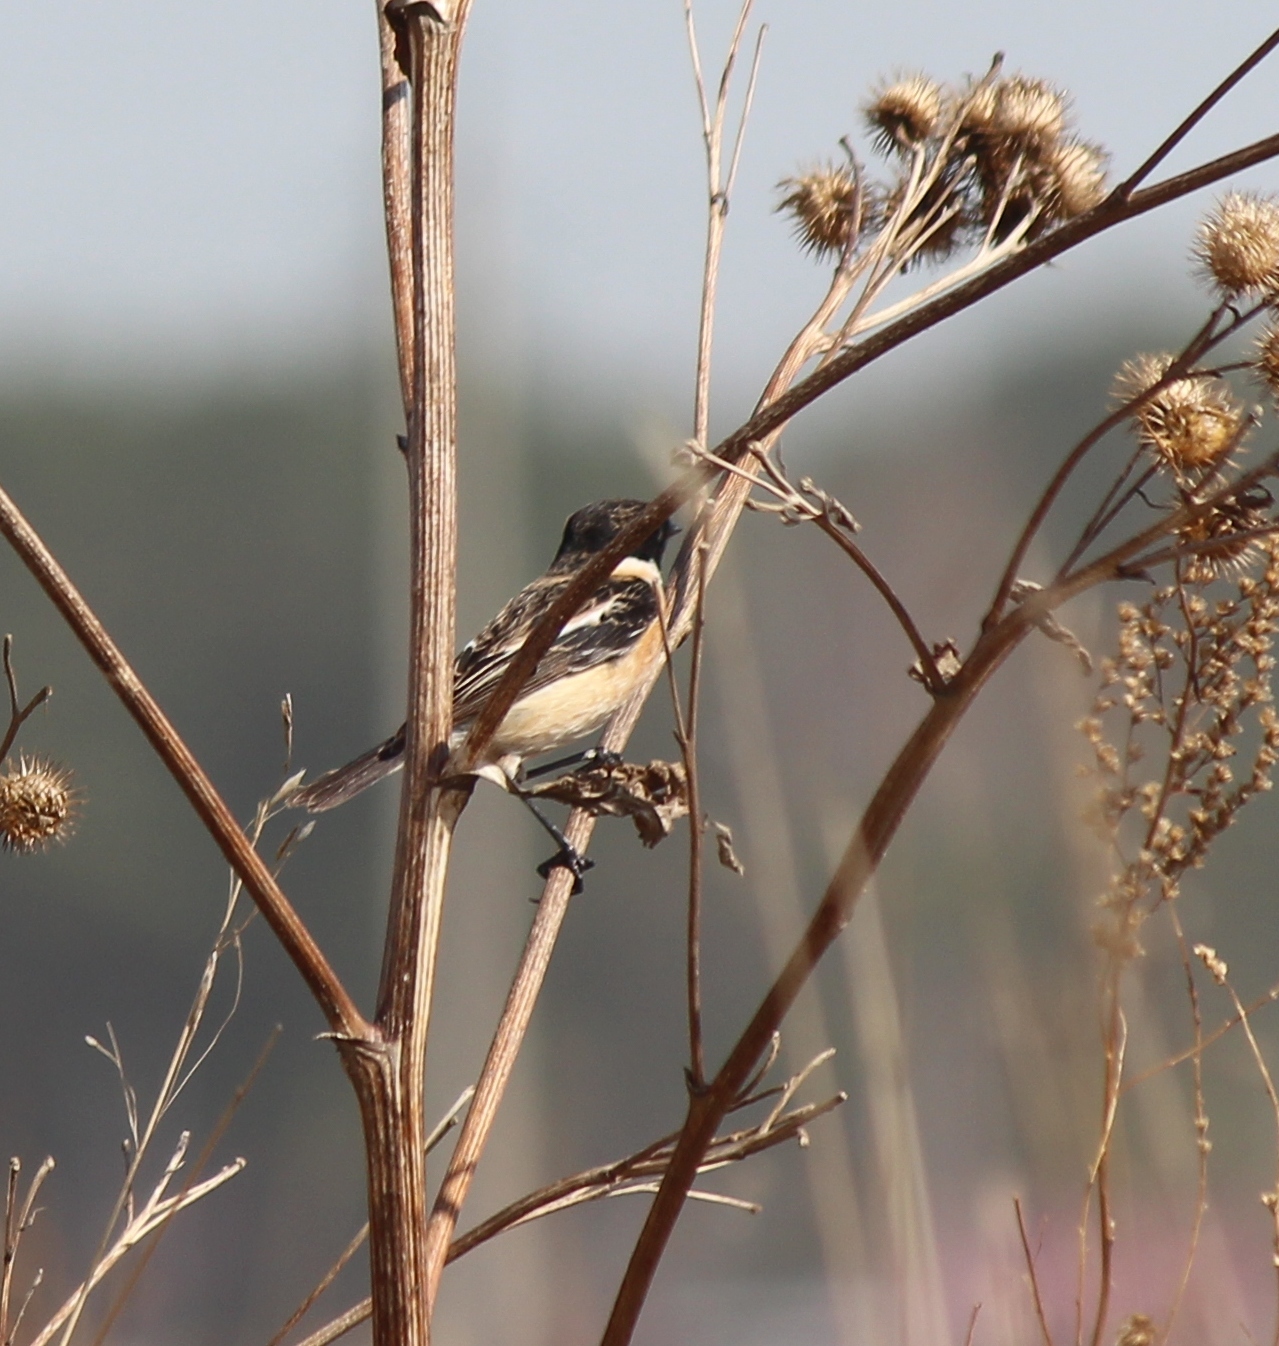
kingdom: Animalia
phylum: Chordata
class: Aves
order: Passeriformes
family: Muscicapidae
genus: Saxicola
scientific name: Saxicola maurus
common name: Siberian stonechat
